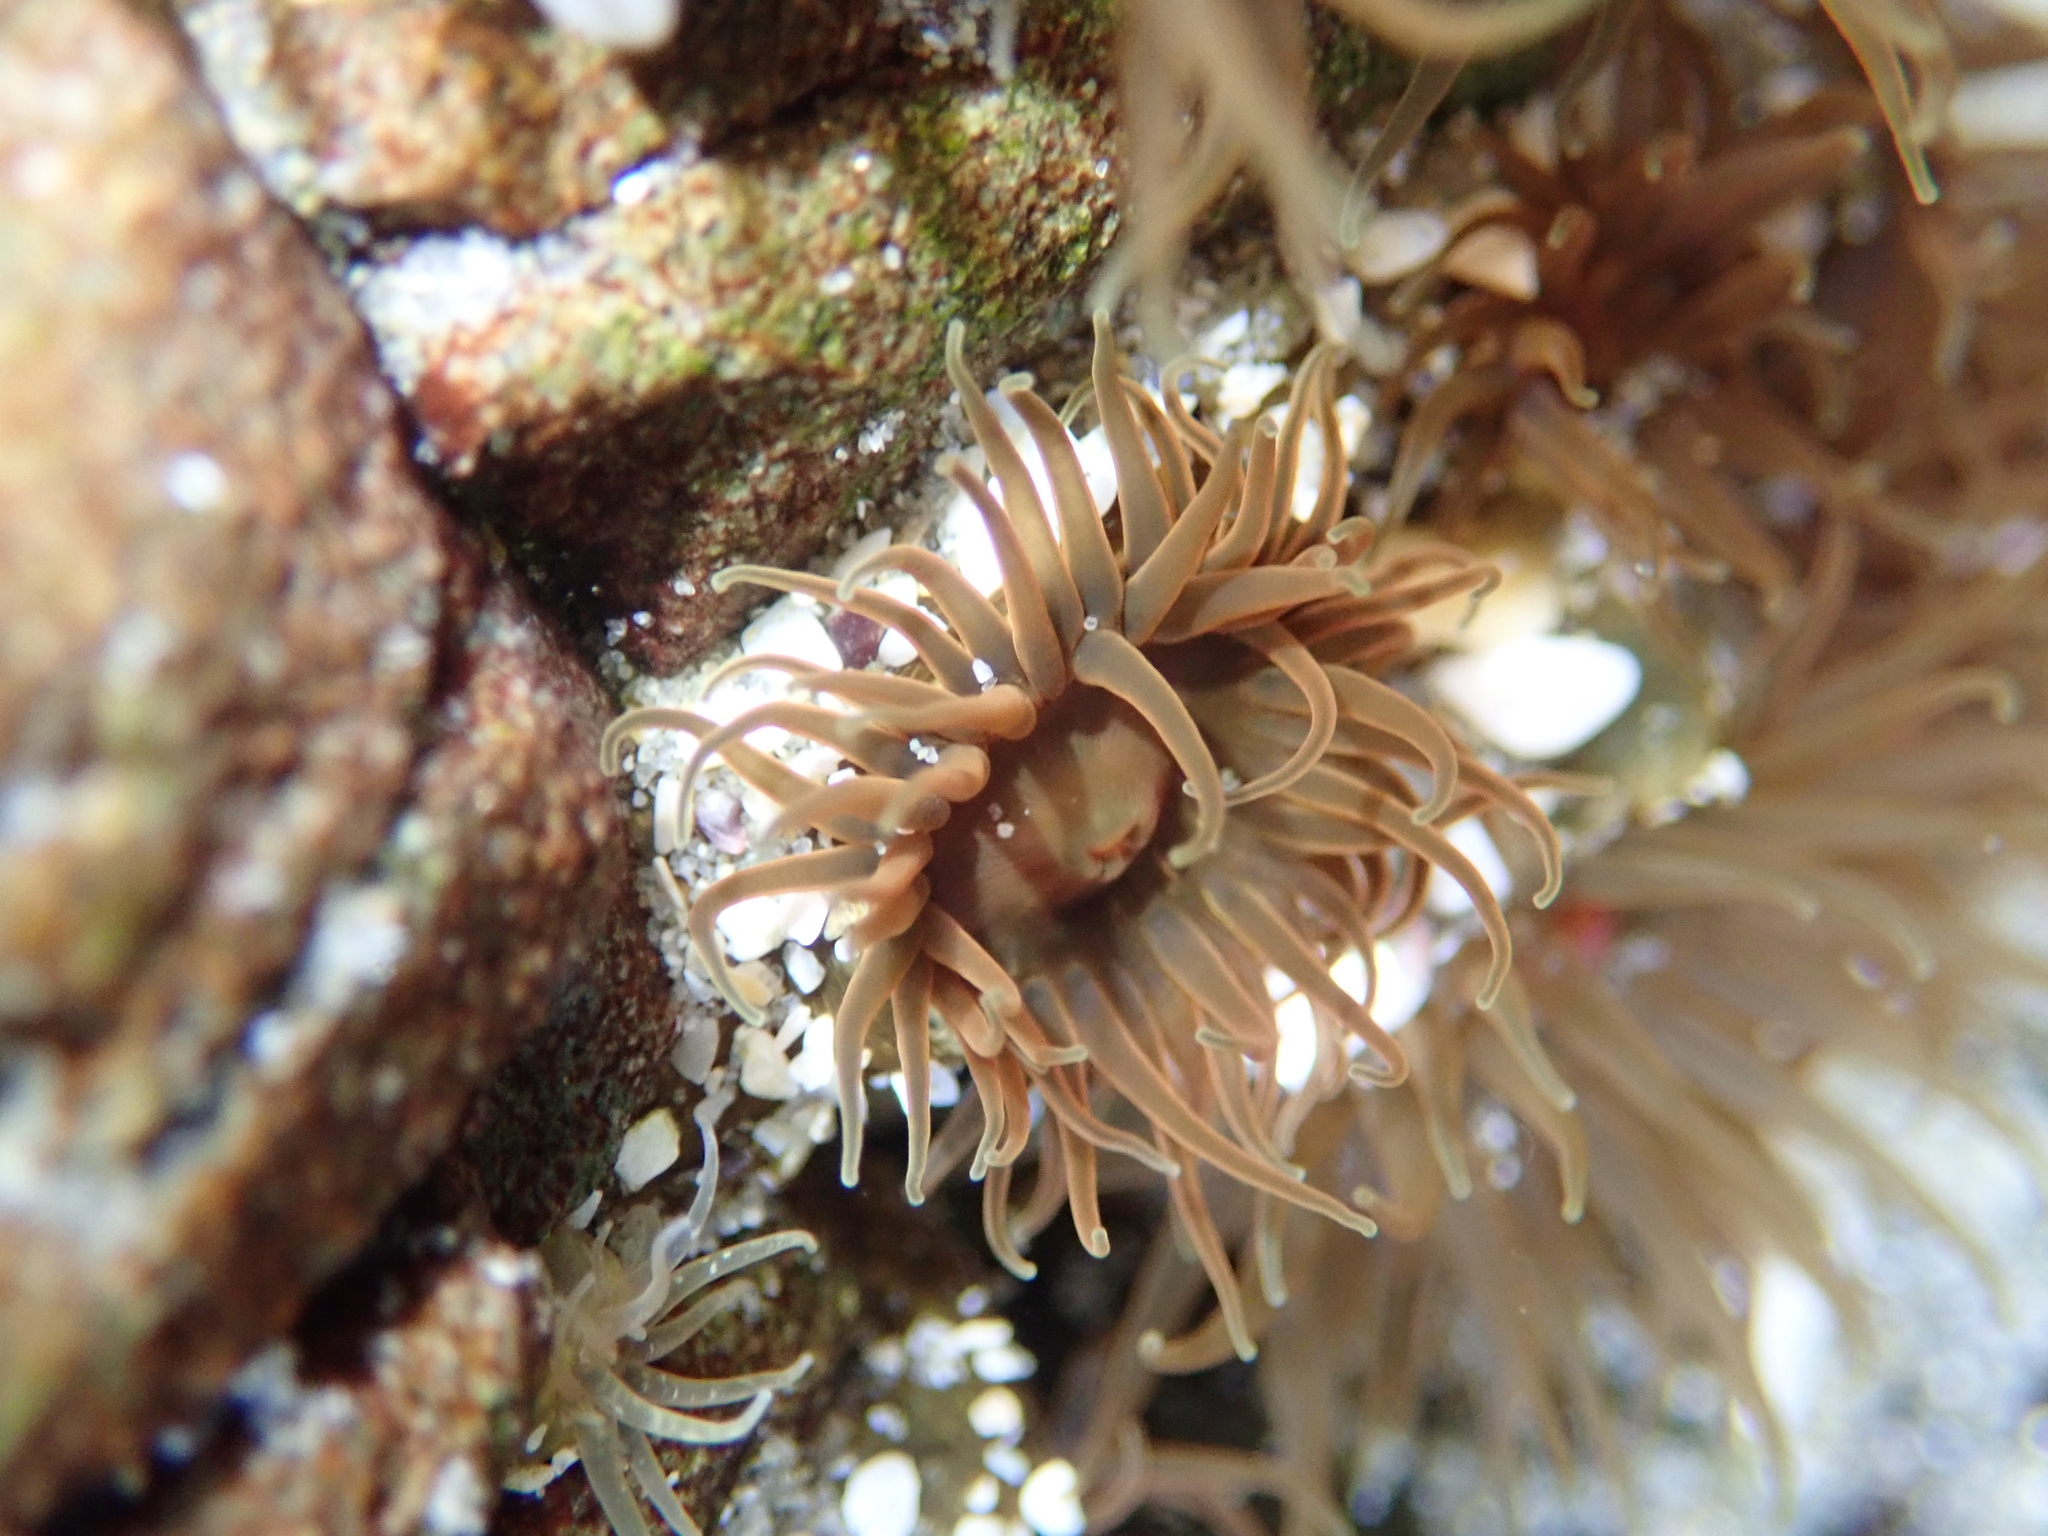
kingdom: Animalia
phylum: Cnidaria
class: Anthozoa
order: Actiniaria
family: Actiniidae
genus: Isactinia
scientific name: Isactinia olivacea
